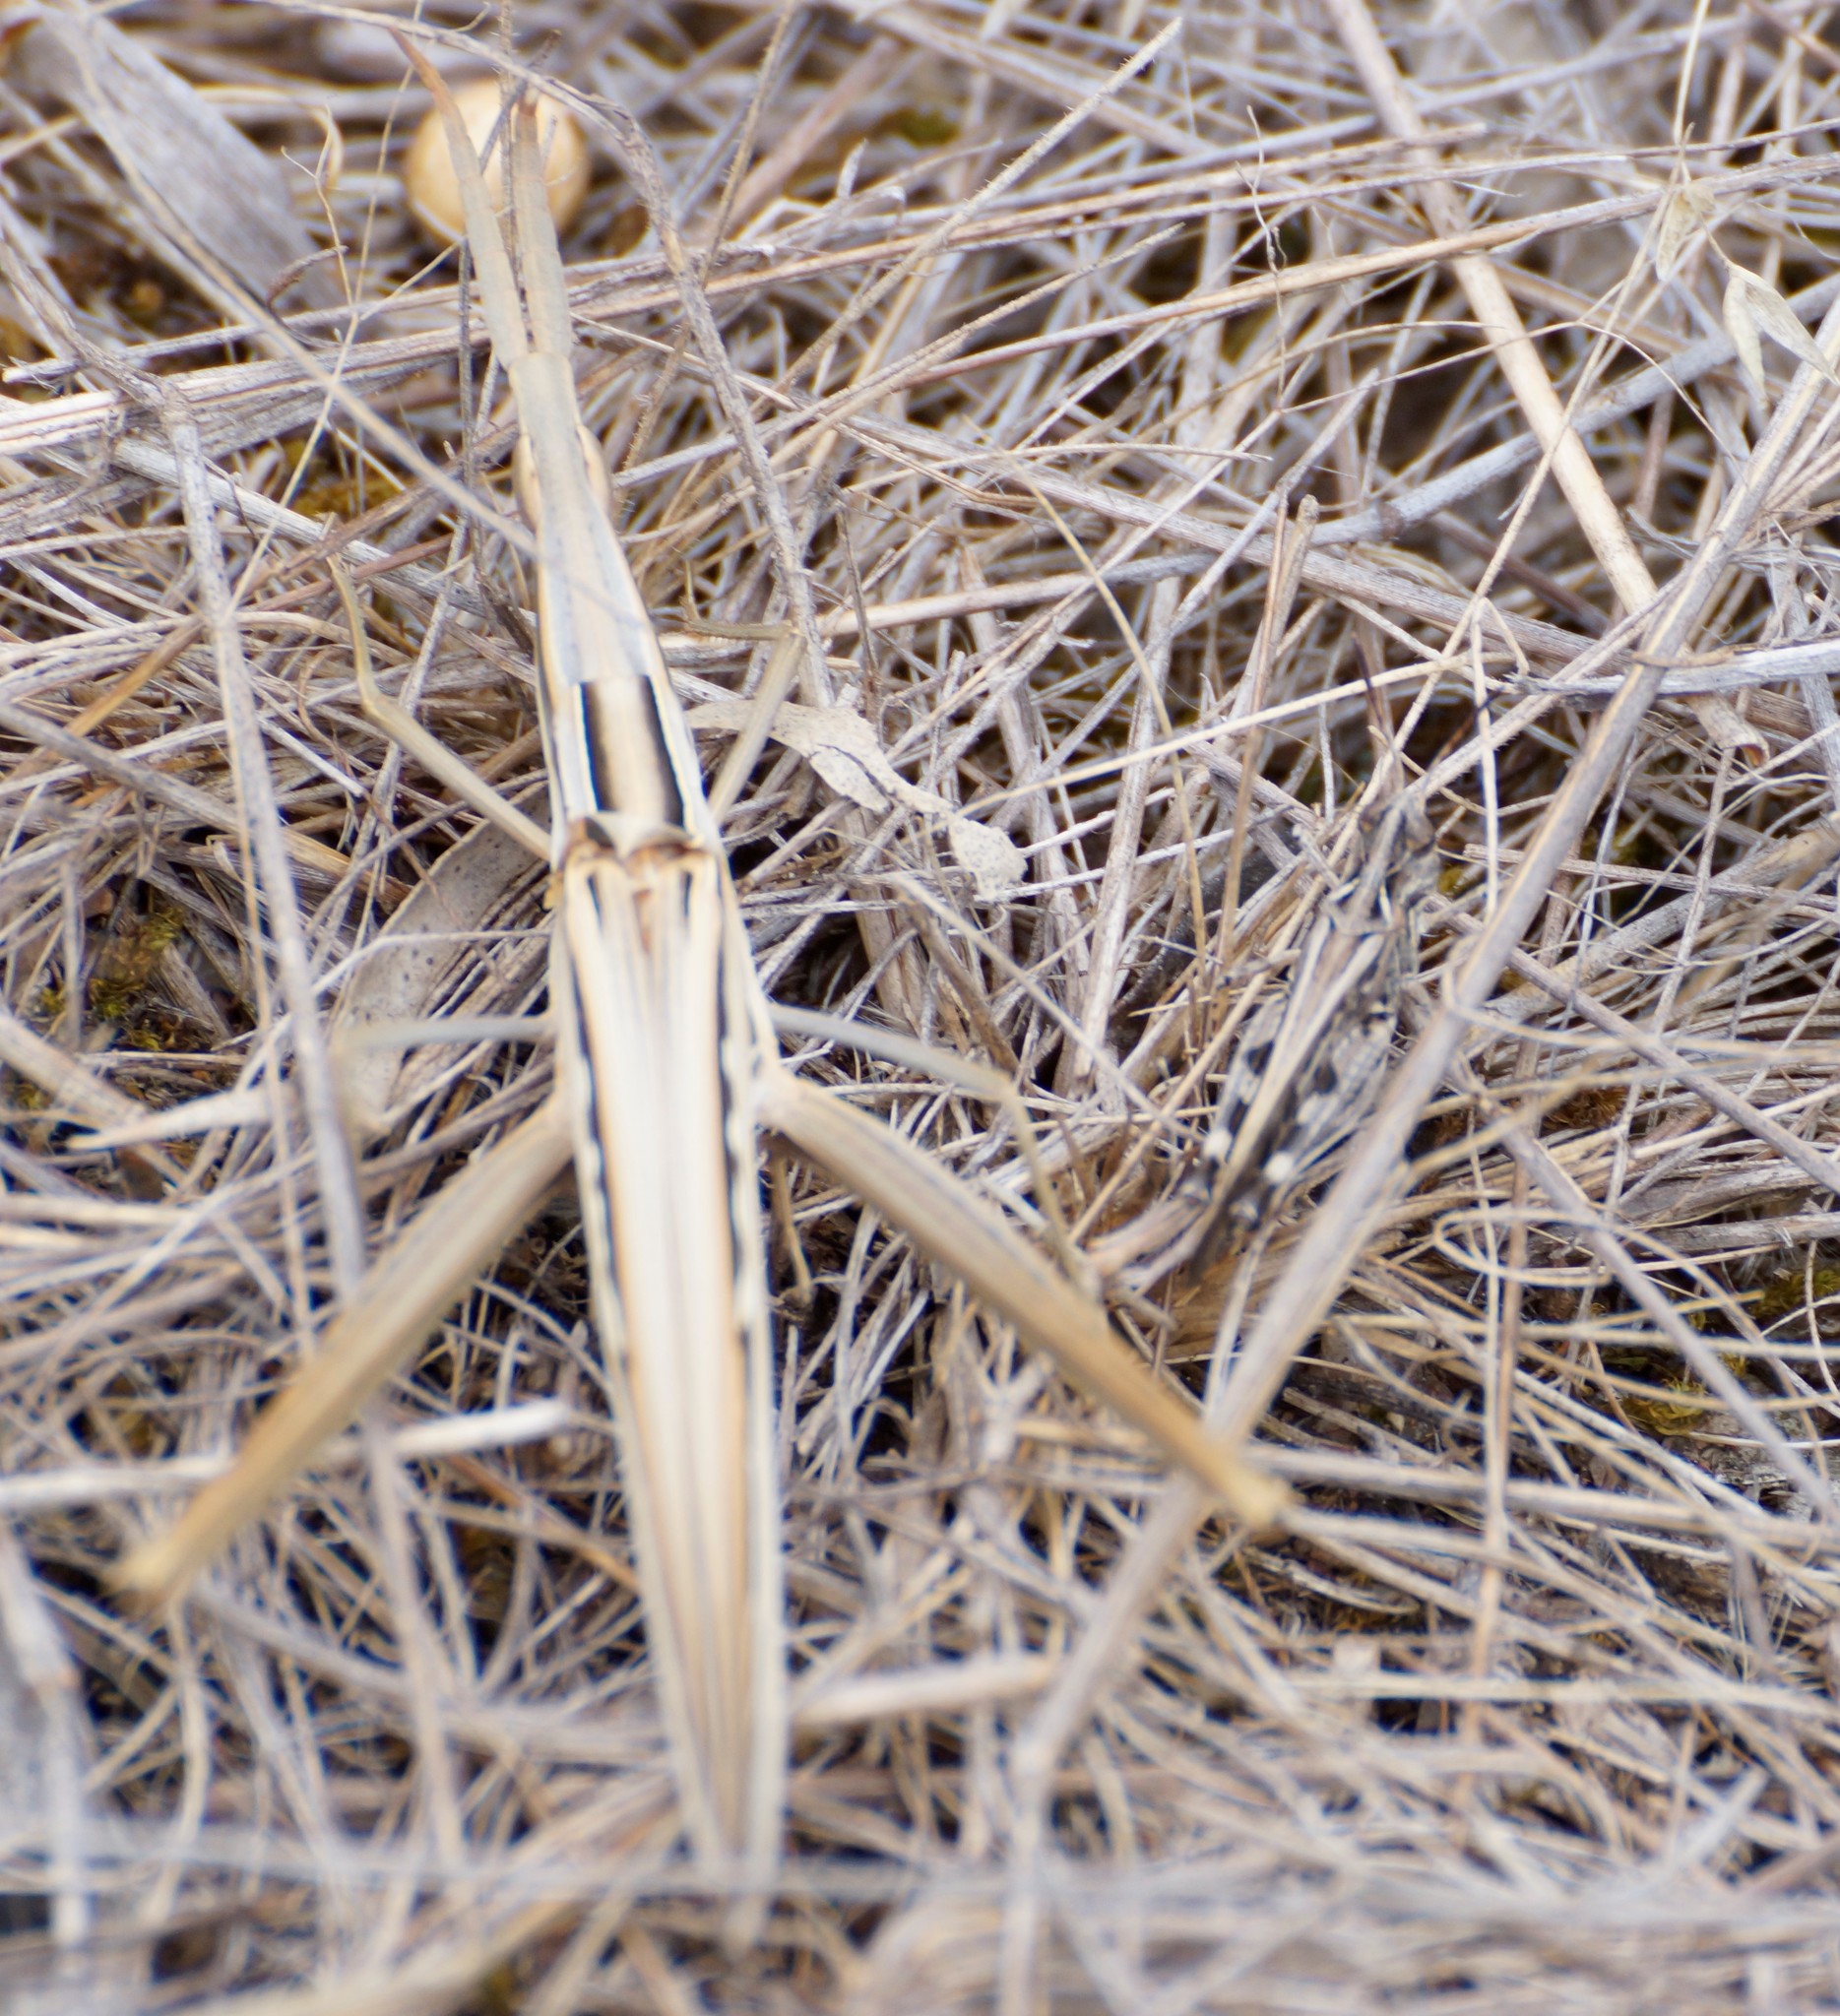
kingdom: Animalia
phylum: Arthropoda
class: Insecta
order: Orthoptera
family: Acrididae
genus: Acrida
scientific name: Acrida conica
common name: Giant green slantface
